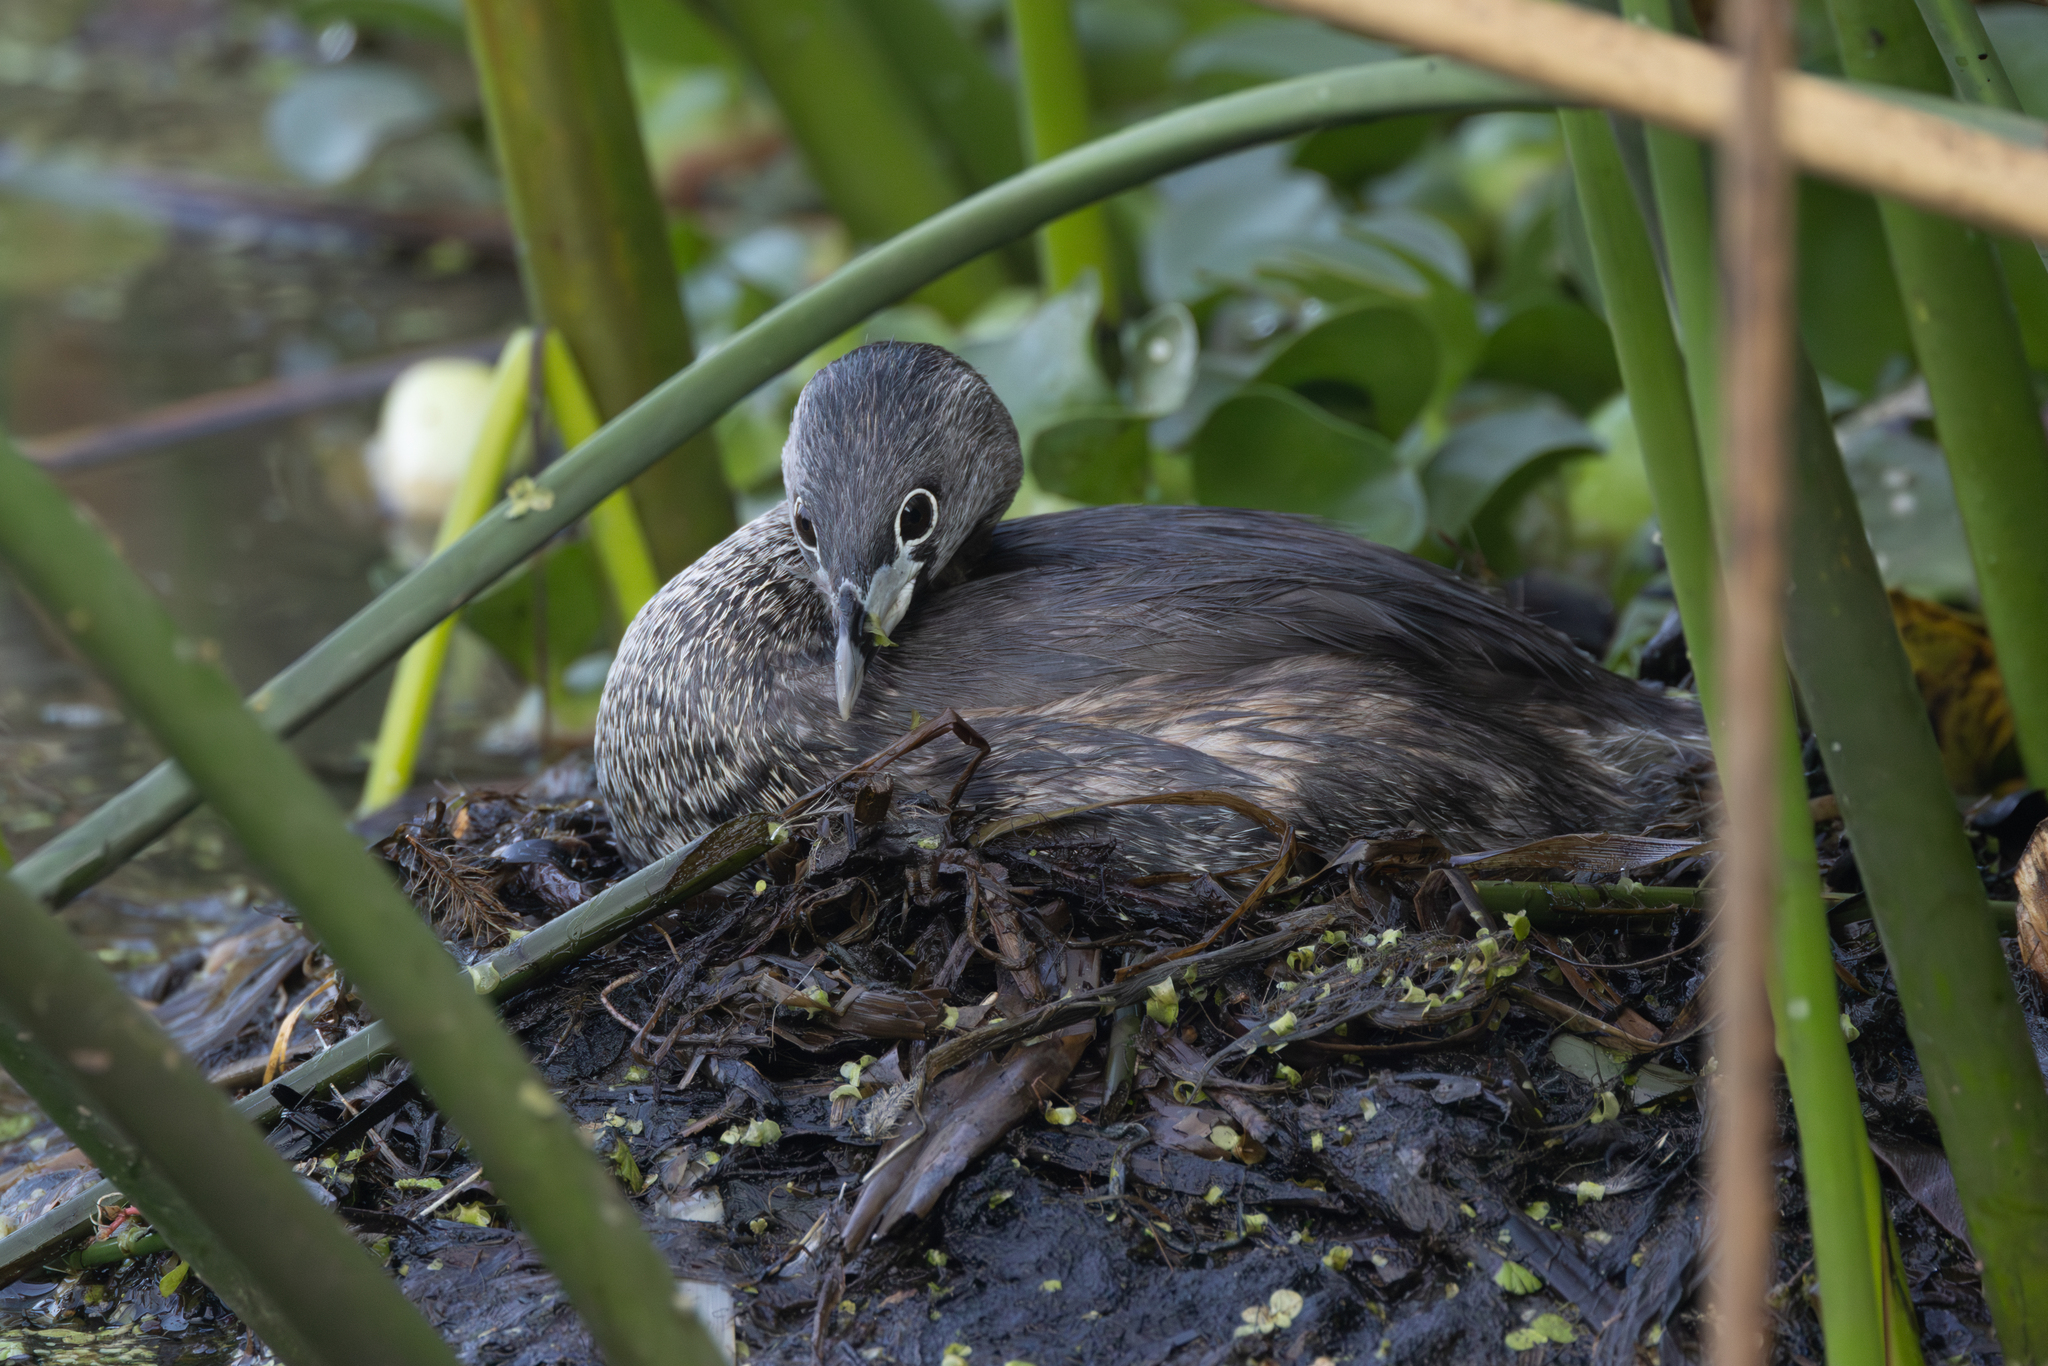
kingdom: Animalia
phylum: Chordata
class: Aves
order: Podicipediformes
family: Podicipedidae
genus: Podilymbus
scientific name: Podilymbus podiceps
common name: Pied-billed grebe
